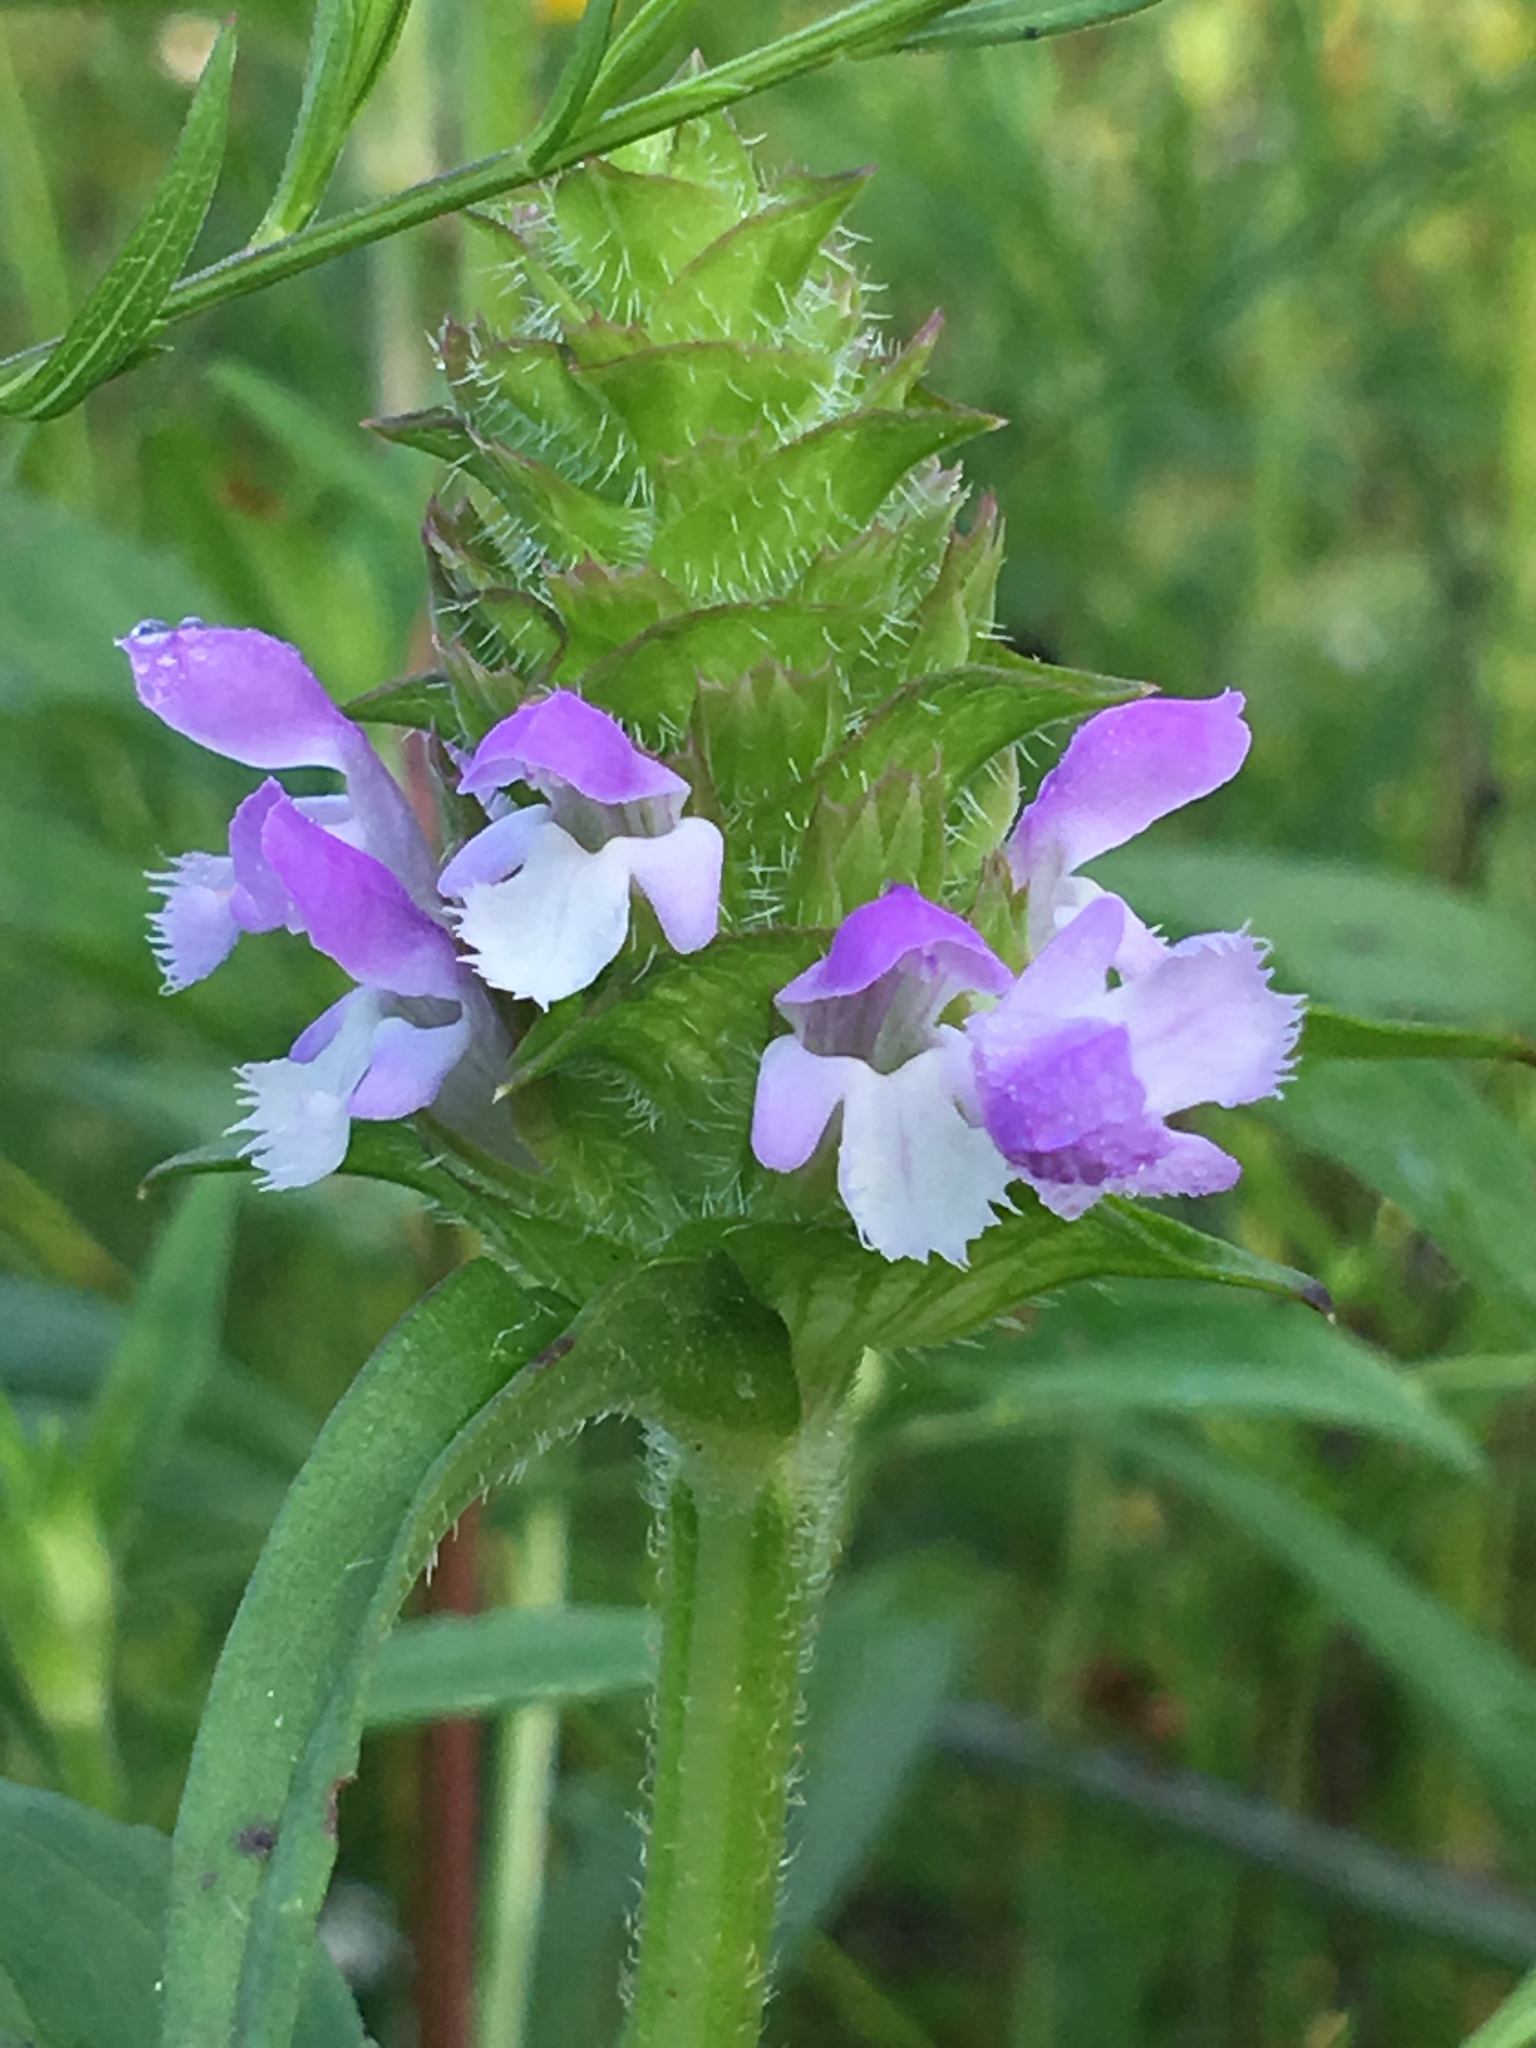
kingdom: Plantae
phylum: Tracheophyta
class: Magnoliopsida
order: Lamiales
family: Lamiaceae
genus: Prunella
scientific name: Prunella vulgaris
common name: Heal-all
